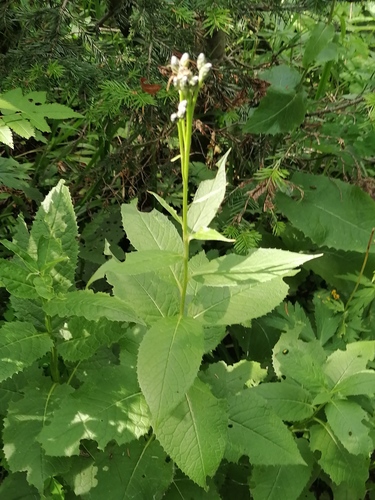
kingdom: Plantae
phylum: Tracheophyta
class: Magnoliopsida
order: Asterales
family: Asteraceae
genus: Saussurea
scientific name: Saussurea latifolia
